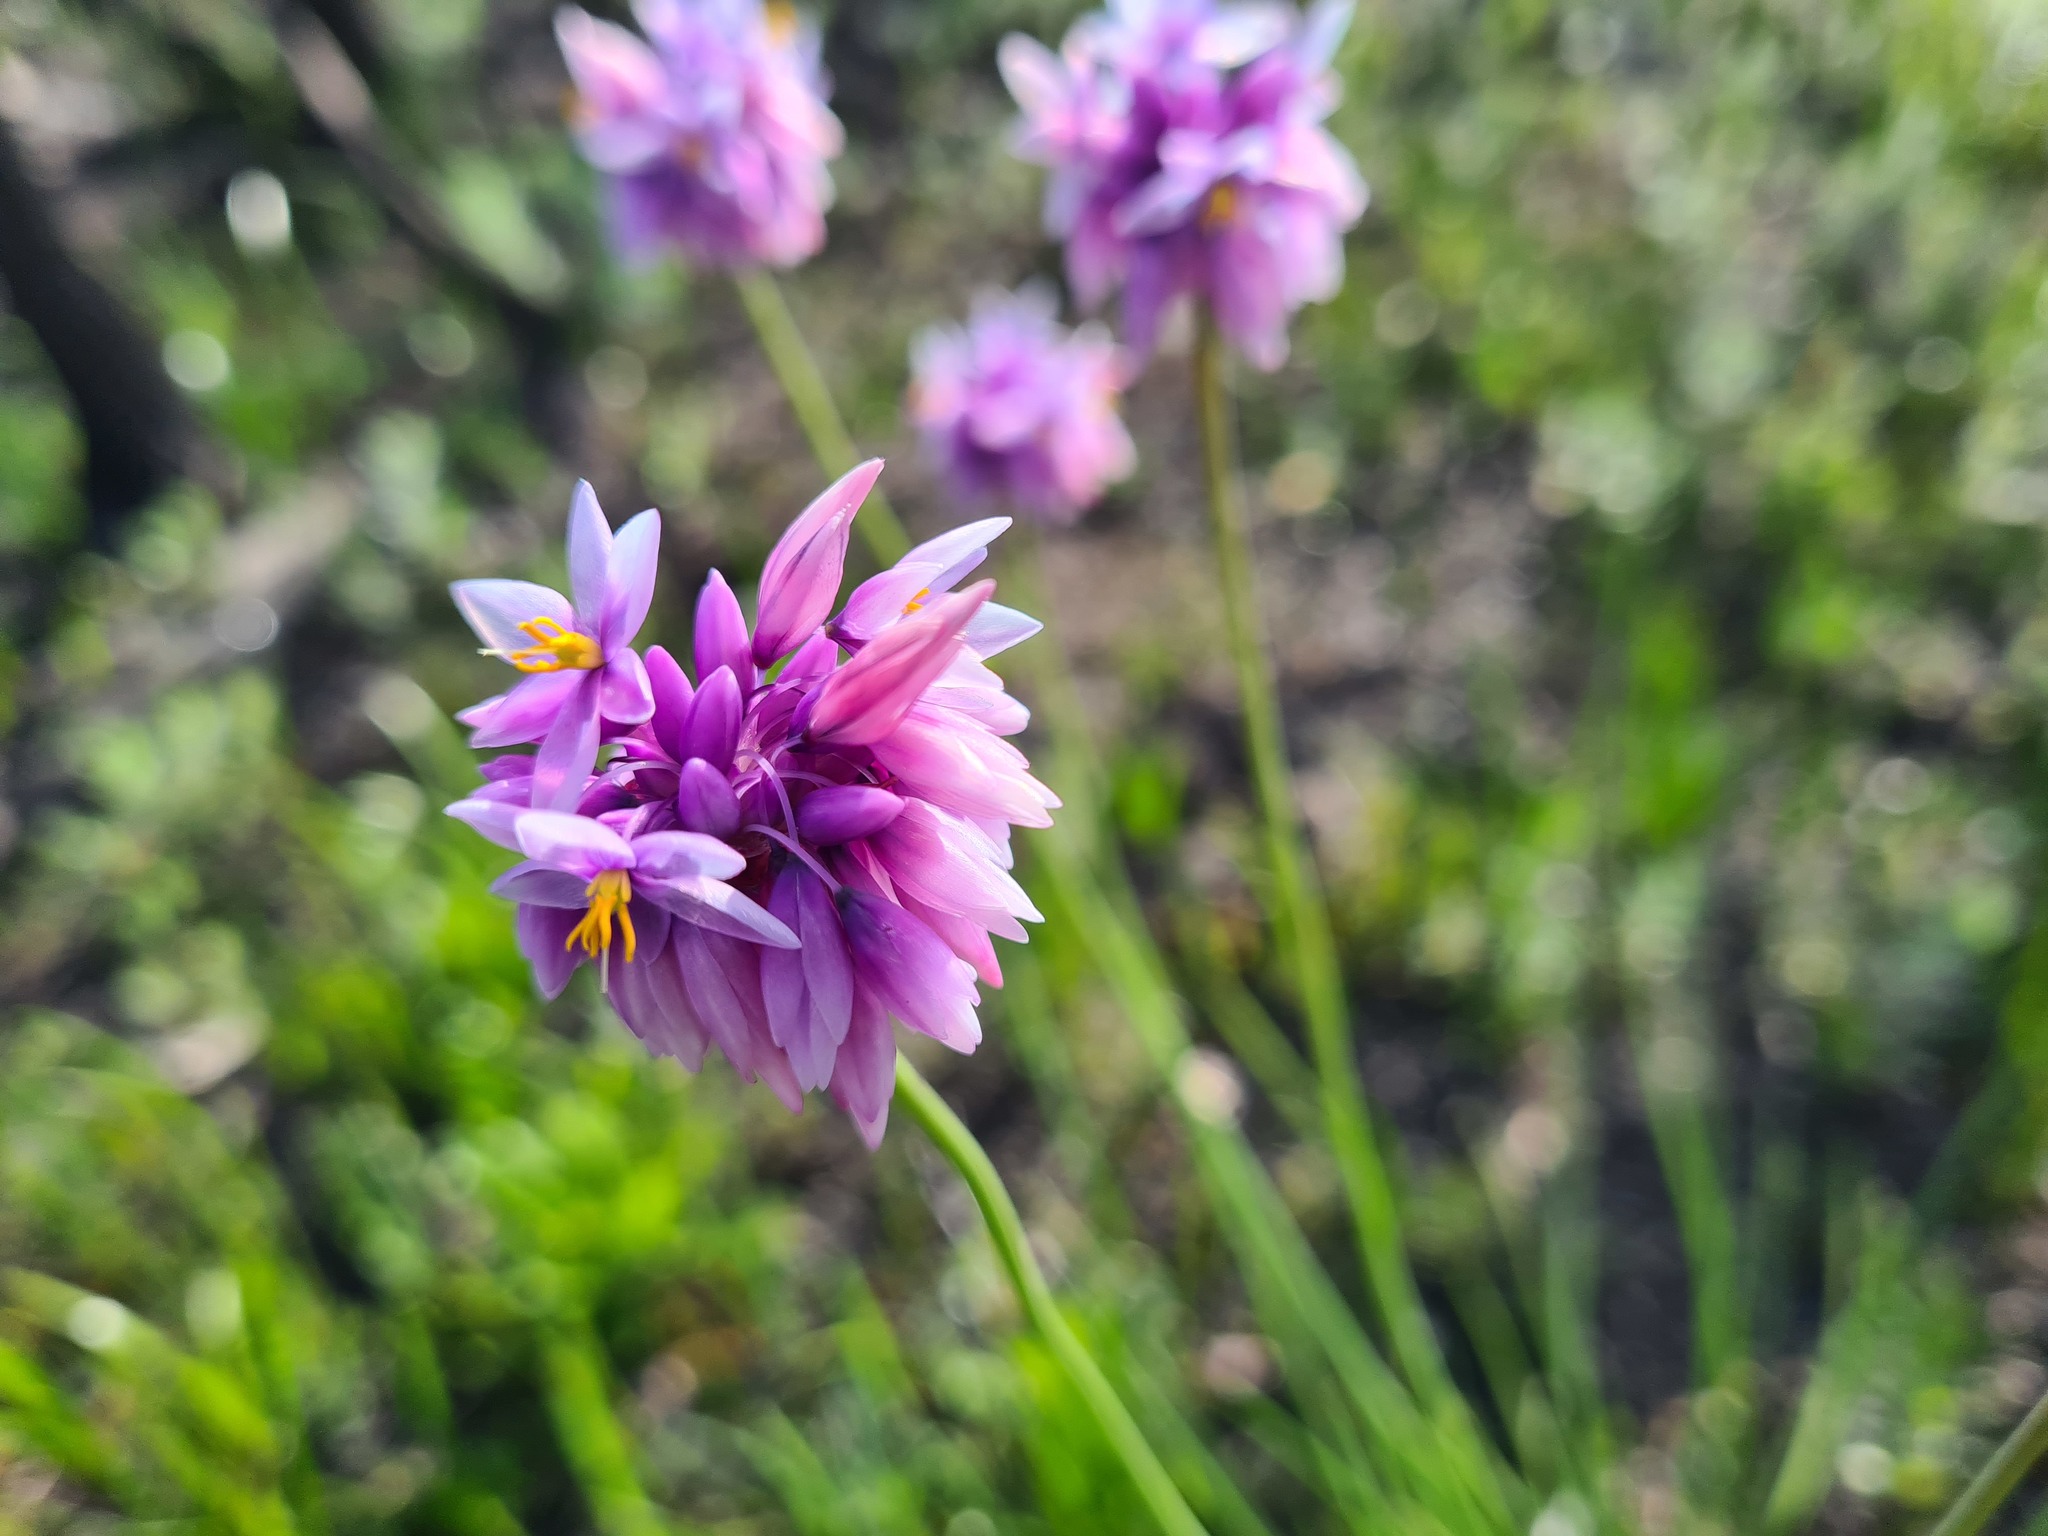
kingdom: Plantae
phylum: Tracheophyta
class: Liliopsida
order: Asparagales
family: Asparagaceae
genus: Sowerbaea
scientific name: Sowerbaea juncea
